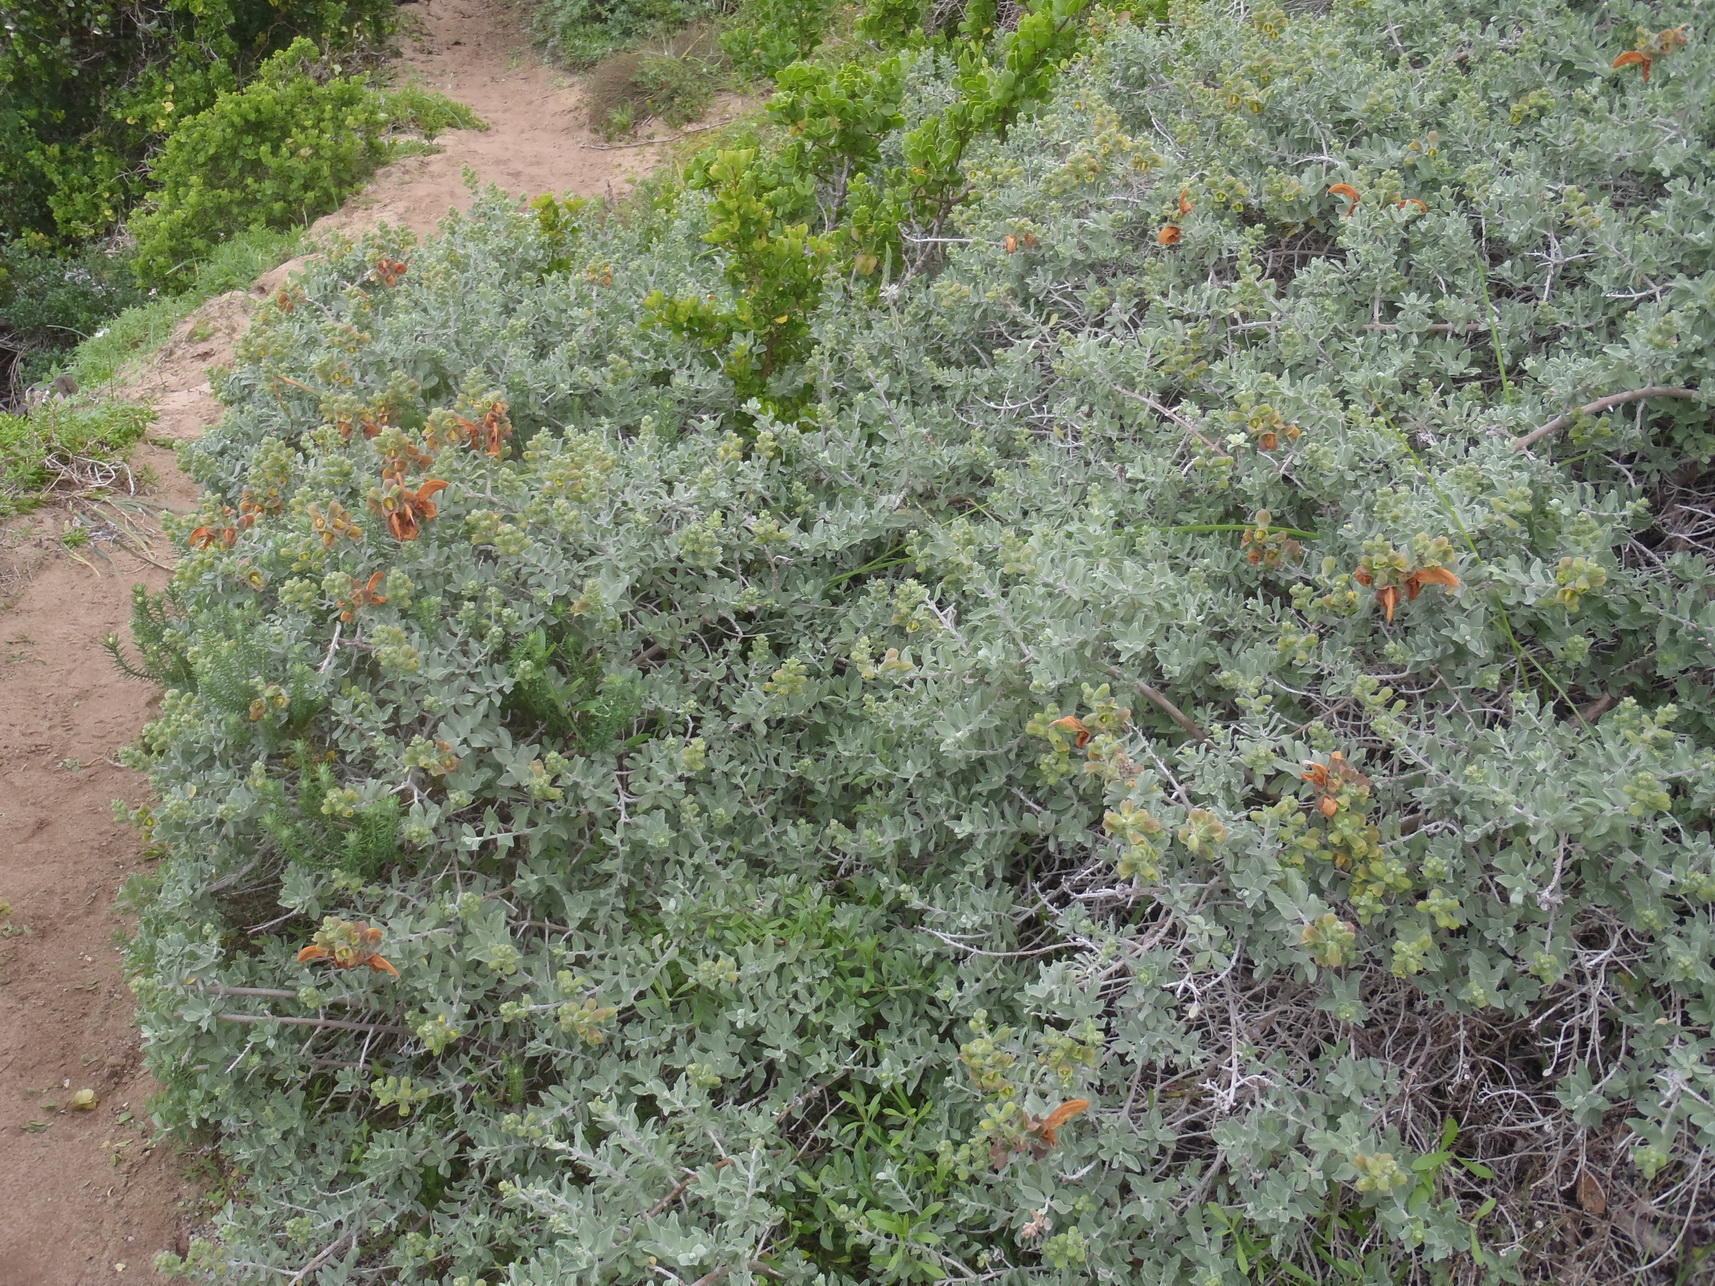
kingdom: Plantae
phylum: Tracheophyta
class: Magnoliopsida
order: Lamiales
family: Lamiaceae
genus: Salvia
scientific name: Salvia aurea
